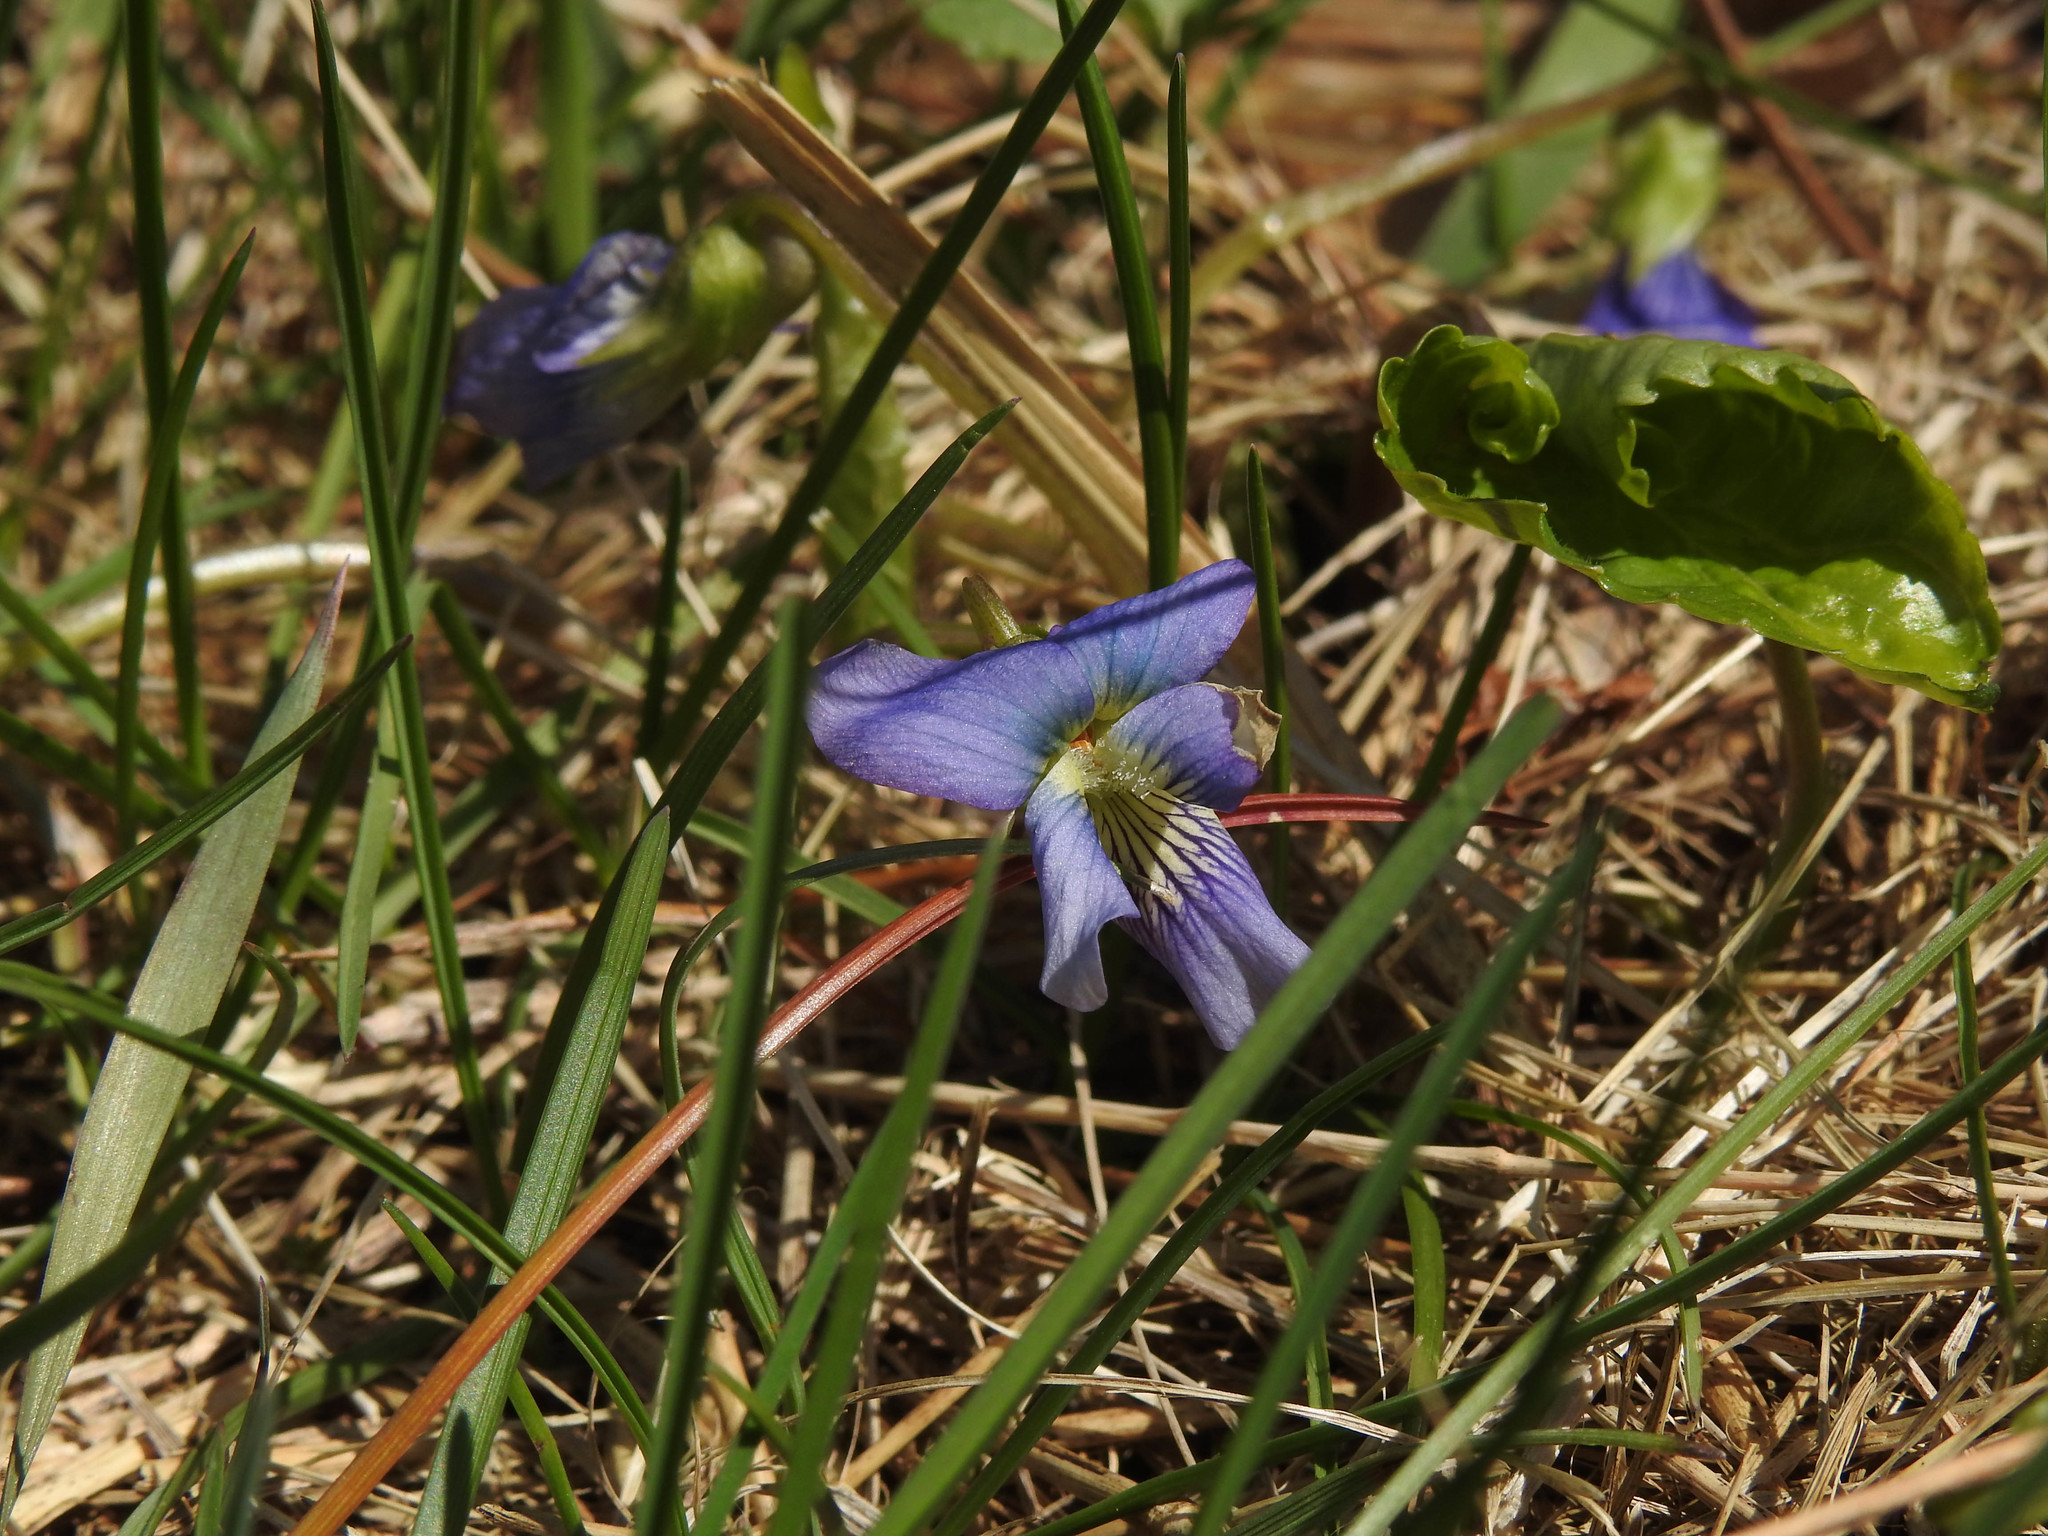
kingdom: Plantae
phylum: Tracheophyta
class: Magnoliopsida
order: Malpighiales
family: Violaceae
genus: Viola
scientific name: Viola sororia
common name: Dooryard violet
